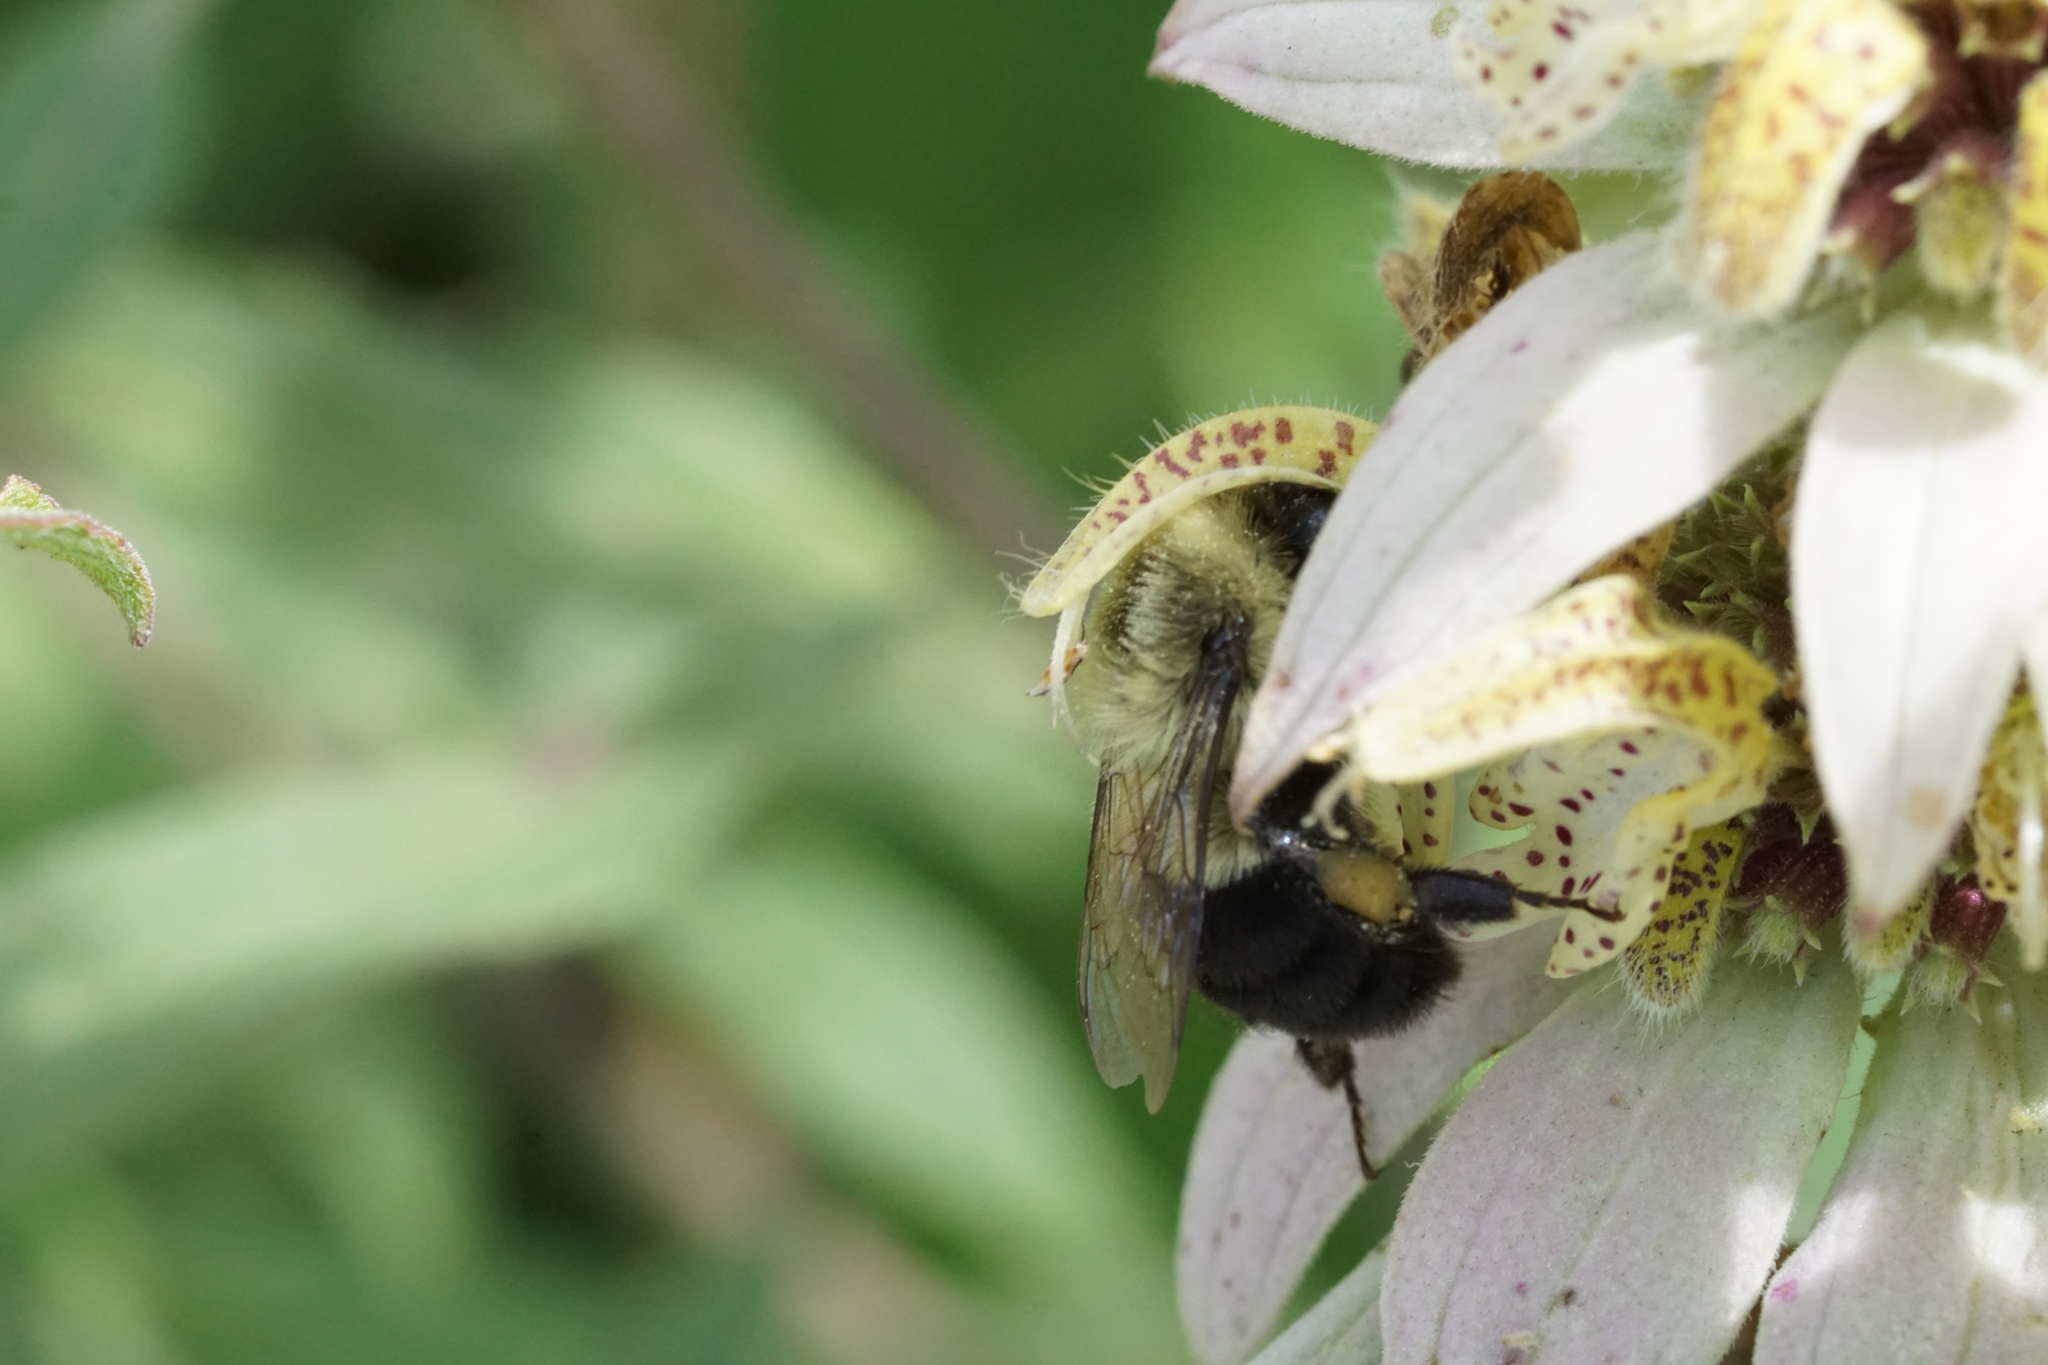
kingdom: Animalia
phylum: Arthropoda
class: Insecta
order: Hymenoptera
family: Apidae
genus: Bombus
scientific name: Bombus impatiens
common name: Common eastern bumble bee
